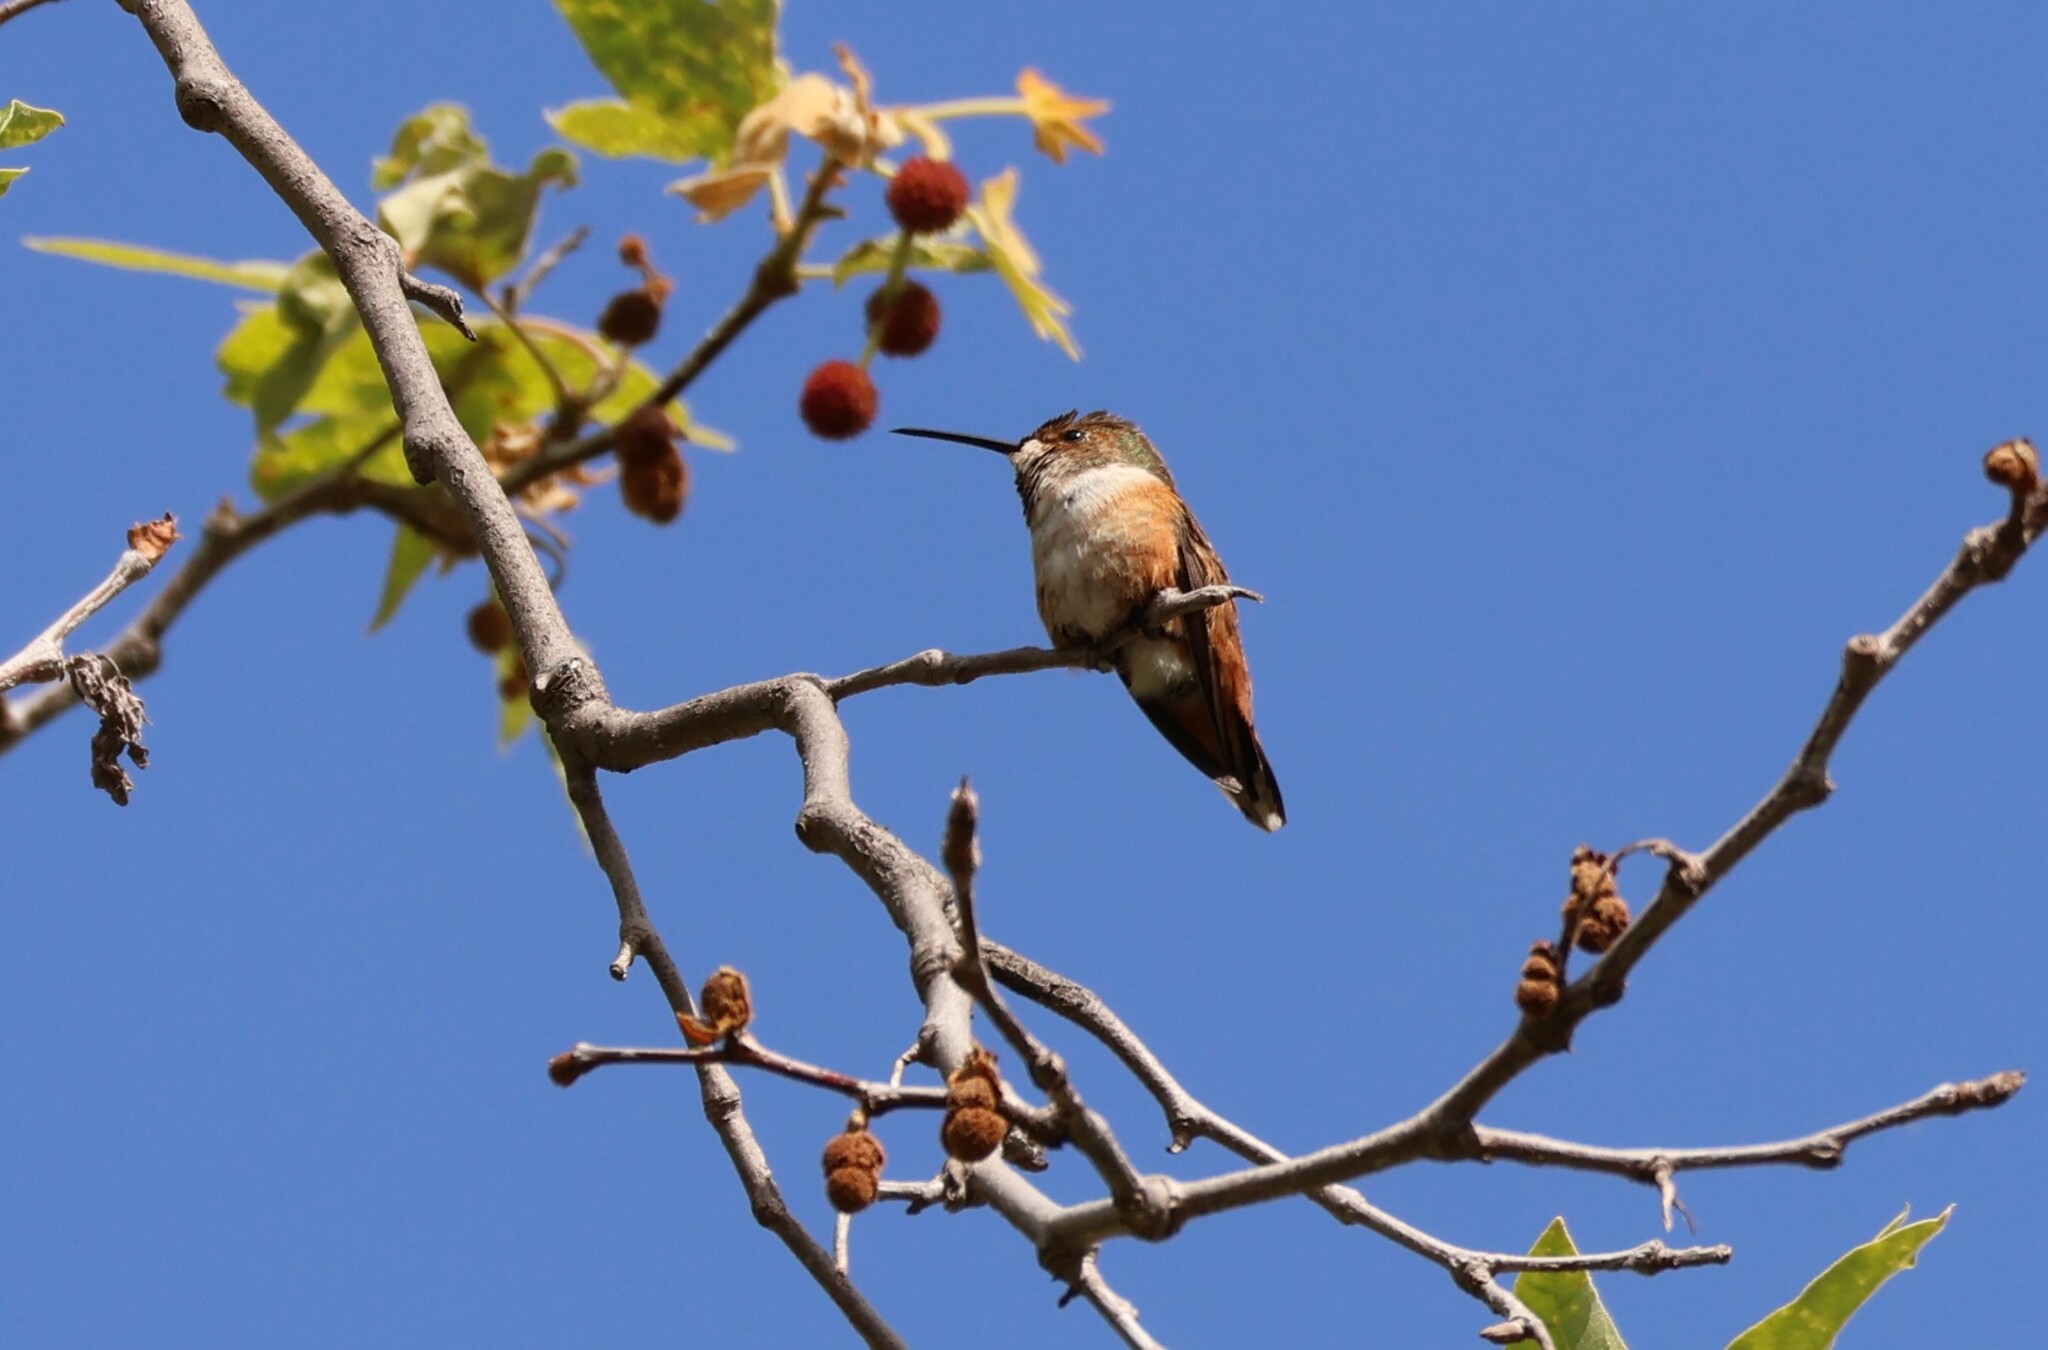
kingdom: Animalia
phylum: Chordata
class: Aves
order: Apodiformes
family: Trochilidae
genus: Selasphorus
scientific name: Selasphorus
